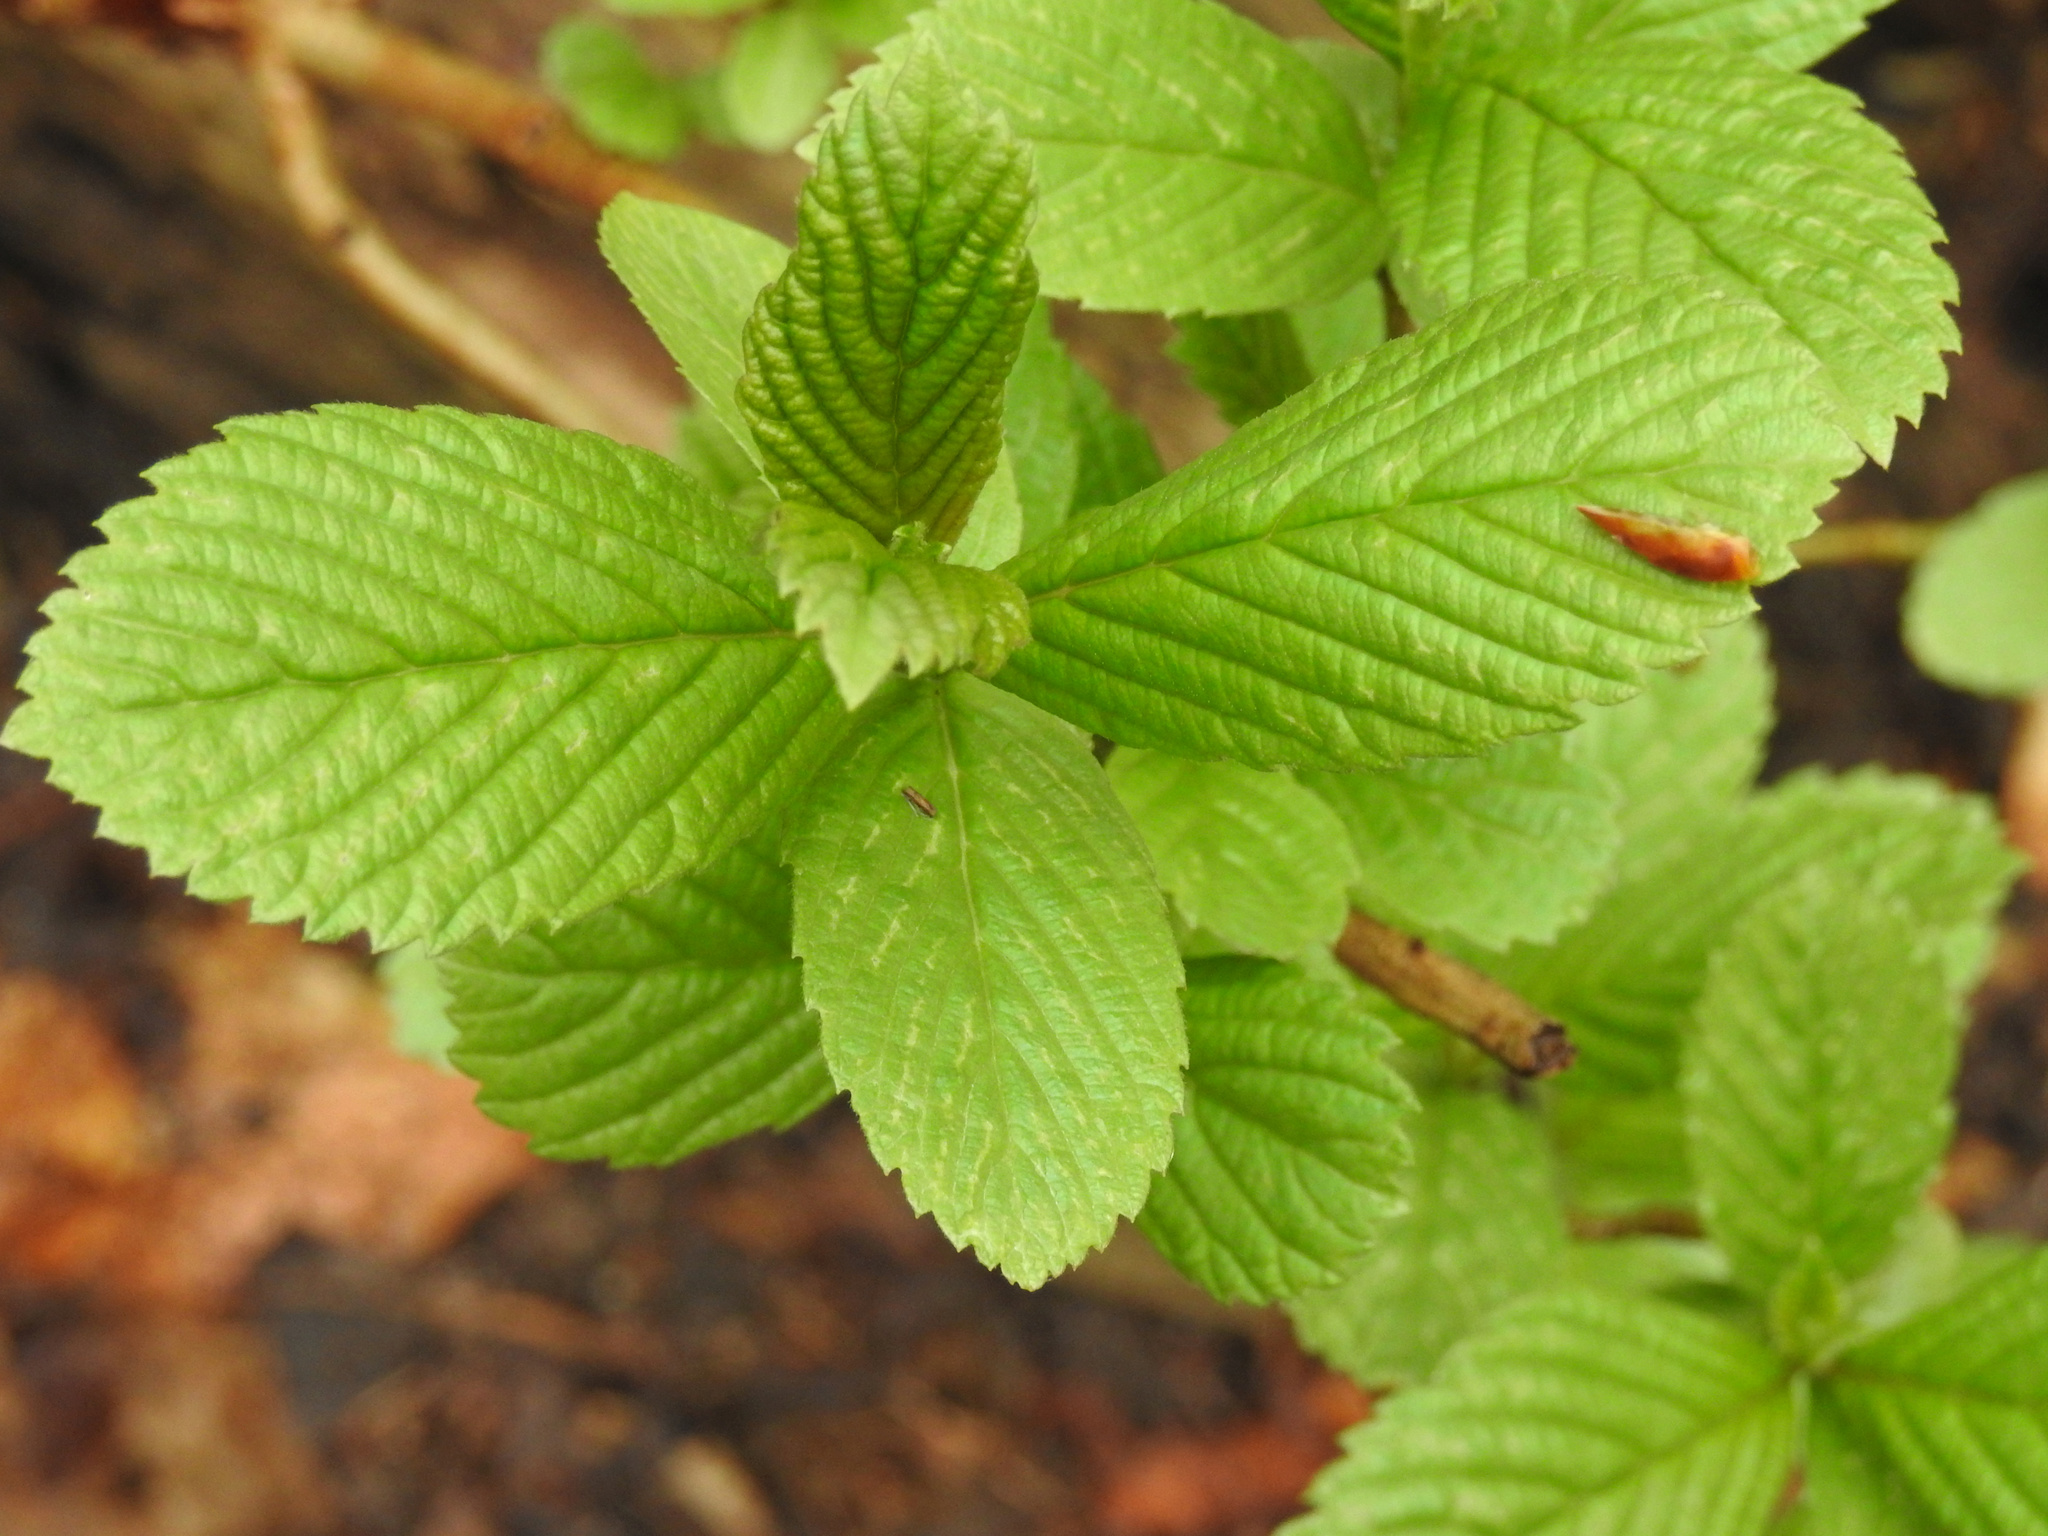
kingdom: Plantae
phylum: Tracheophyta
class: Magnoliopsida
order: Dipsacales
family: Viburnaceae
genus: Viburnum
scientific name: Viburnum sieboldii
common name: Siebold's arrowwood
